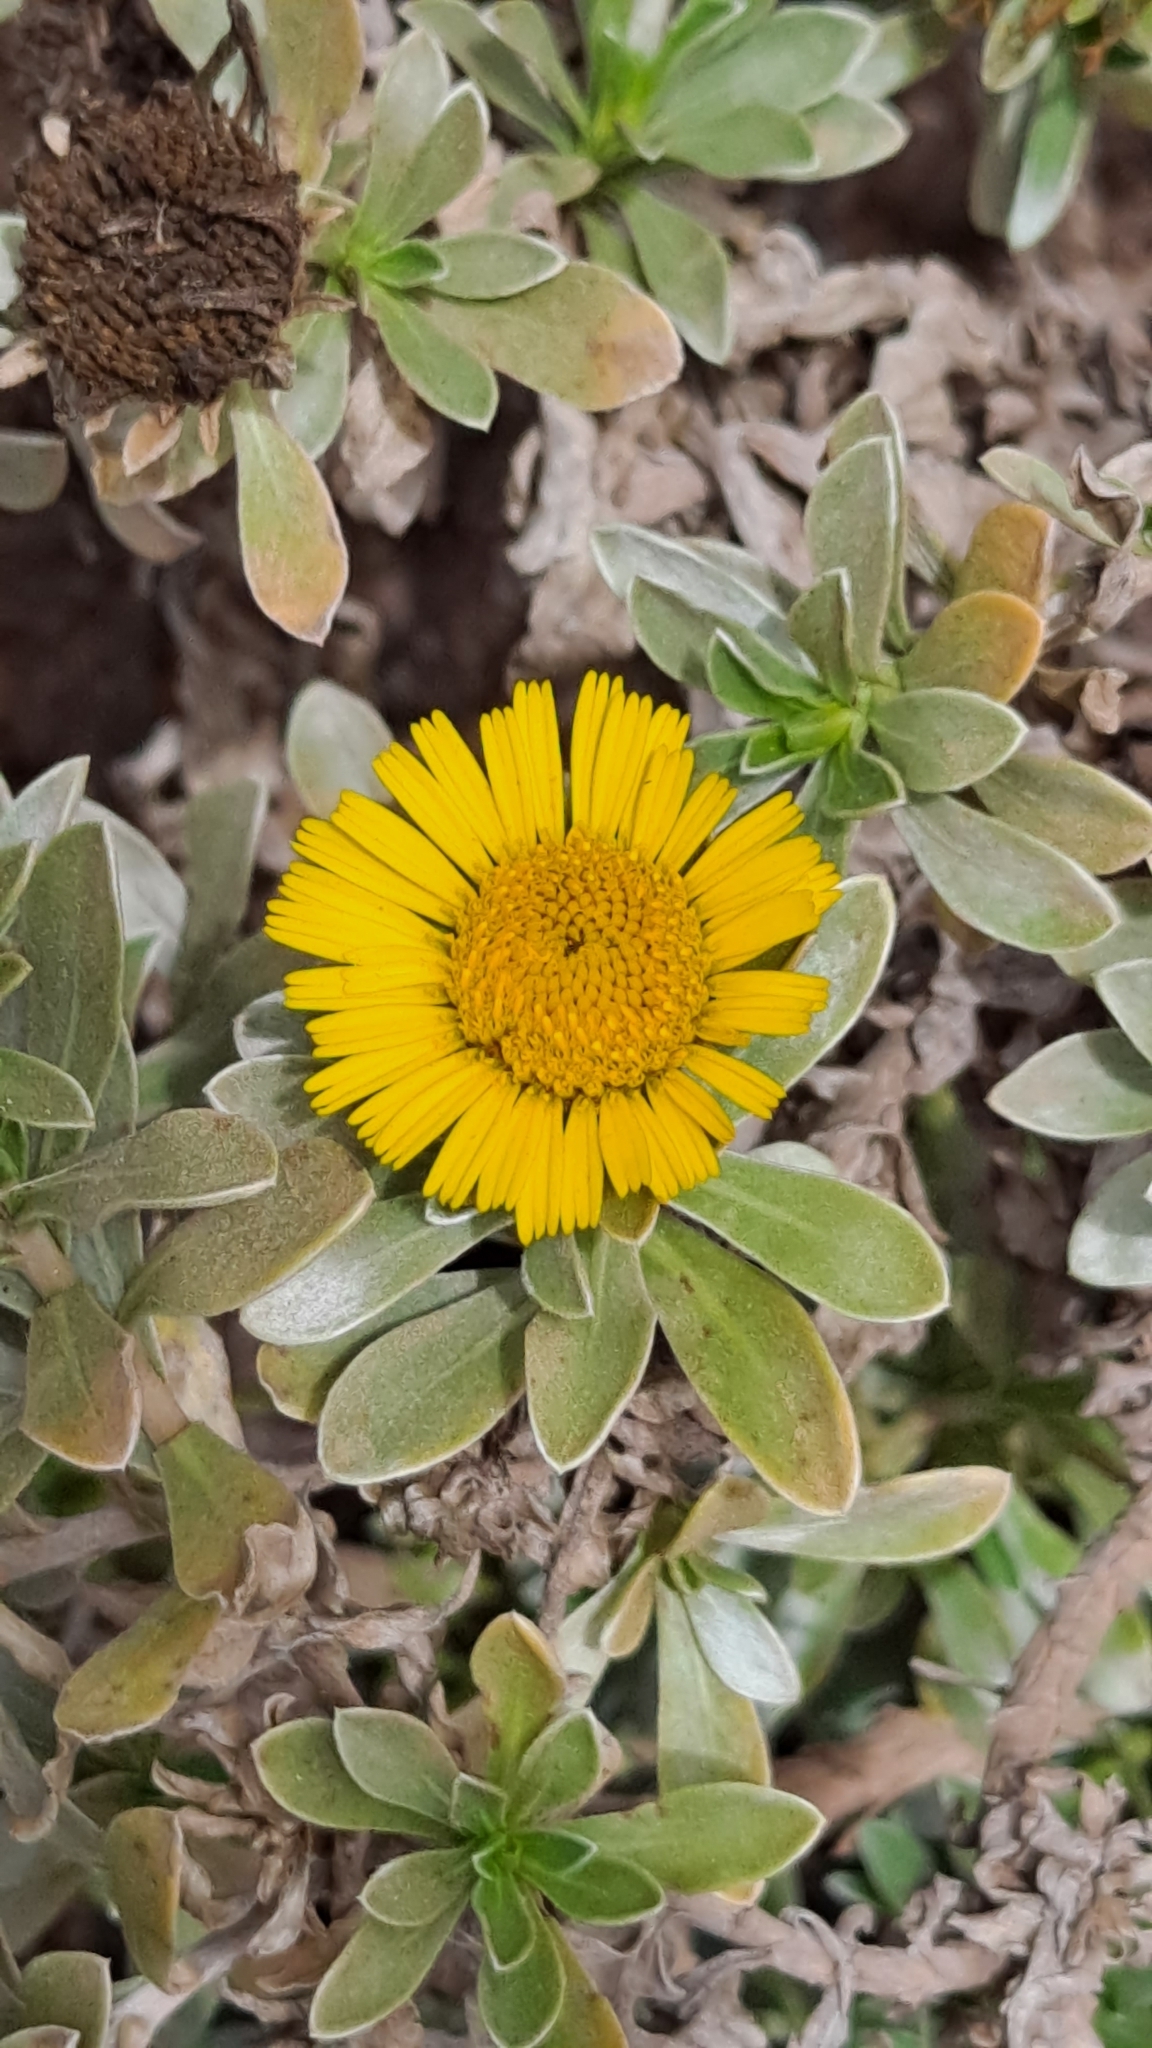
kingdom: Plantae
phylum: Tracheophyta
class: Magnoliopsida
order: Asterales
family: Asteraceae
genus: Asteriscus
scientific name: Asteriscus intermedius
